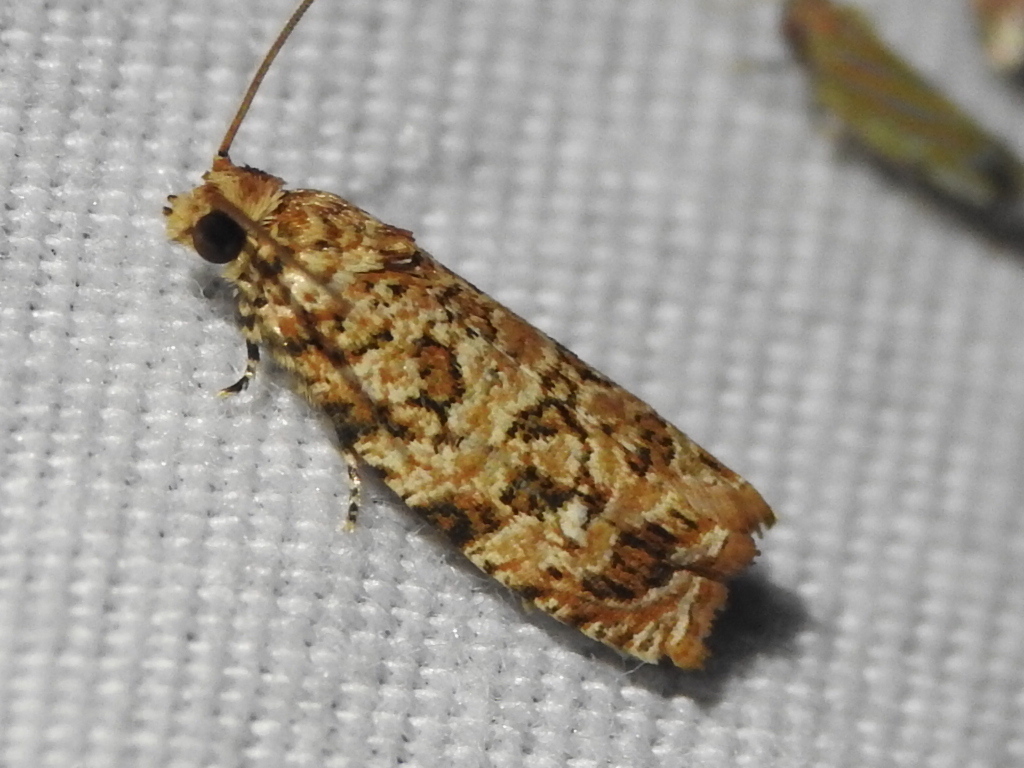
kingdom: Animalia
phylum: Arthropoda
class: Insecta
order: Lepidoptera
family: Tortricidae
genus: Phaecasiophora
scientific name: Phaecasiophora niveiguttana
